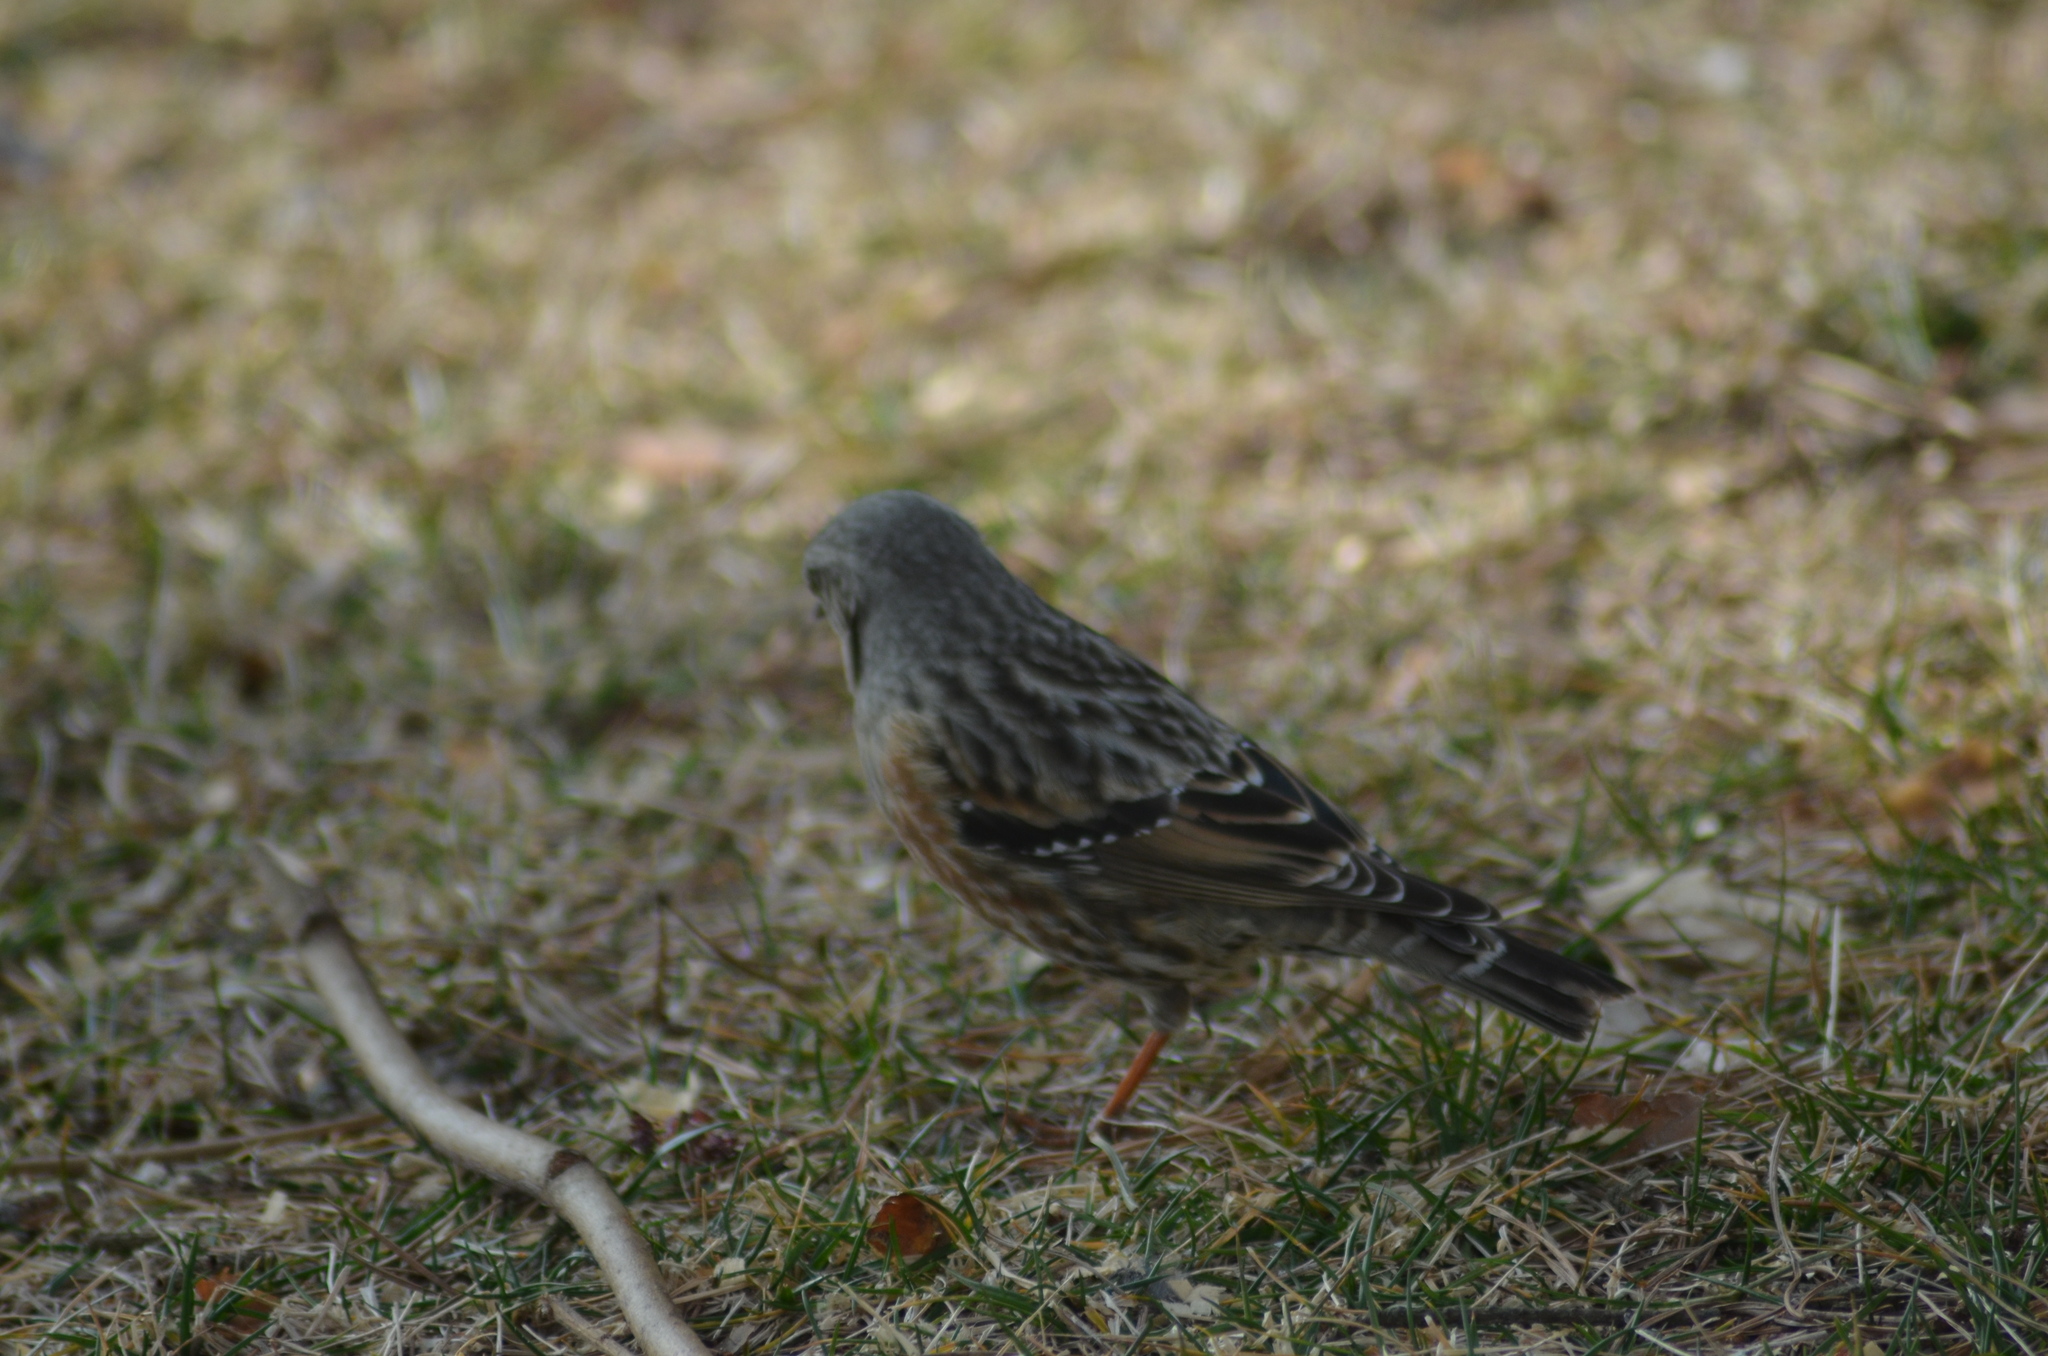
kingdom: Animalia
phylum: Chordata
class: Aves
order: Passeriformes
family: Prunellidae
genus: Prunella
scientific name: Prunella collaris
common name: Alpine accentor
